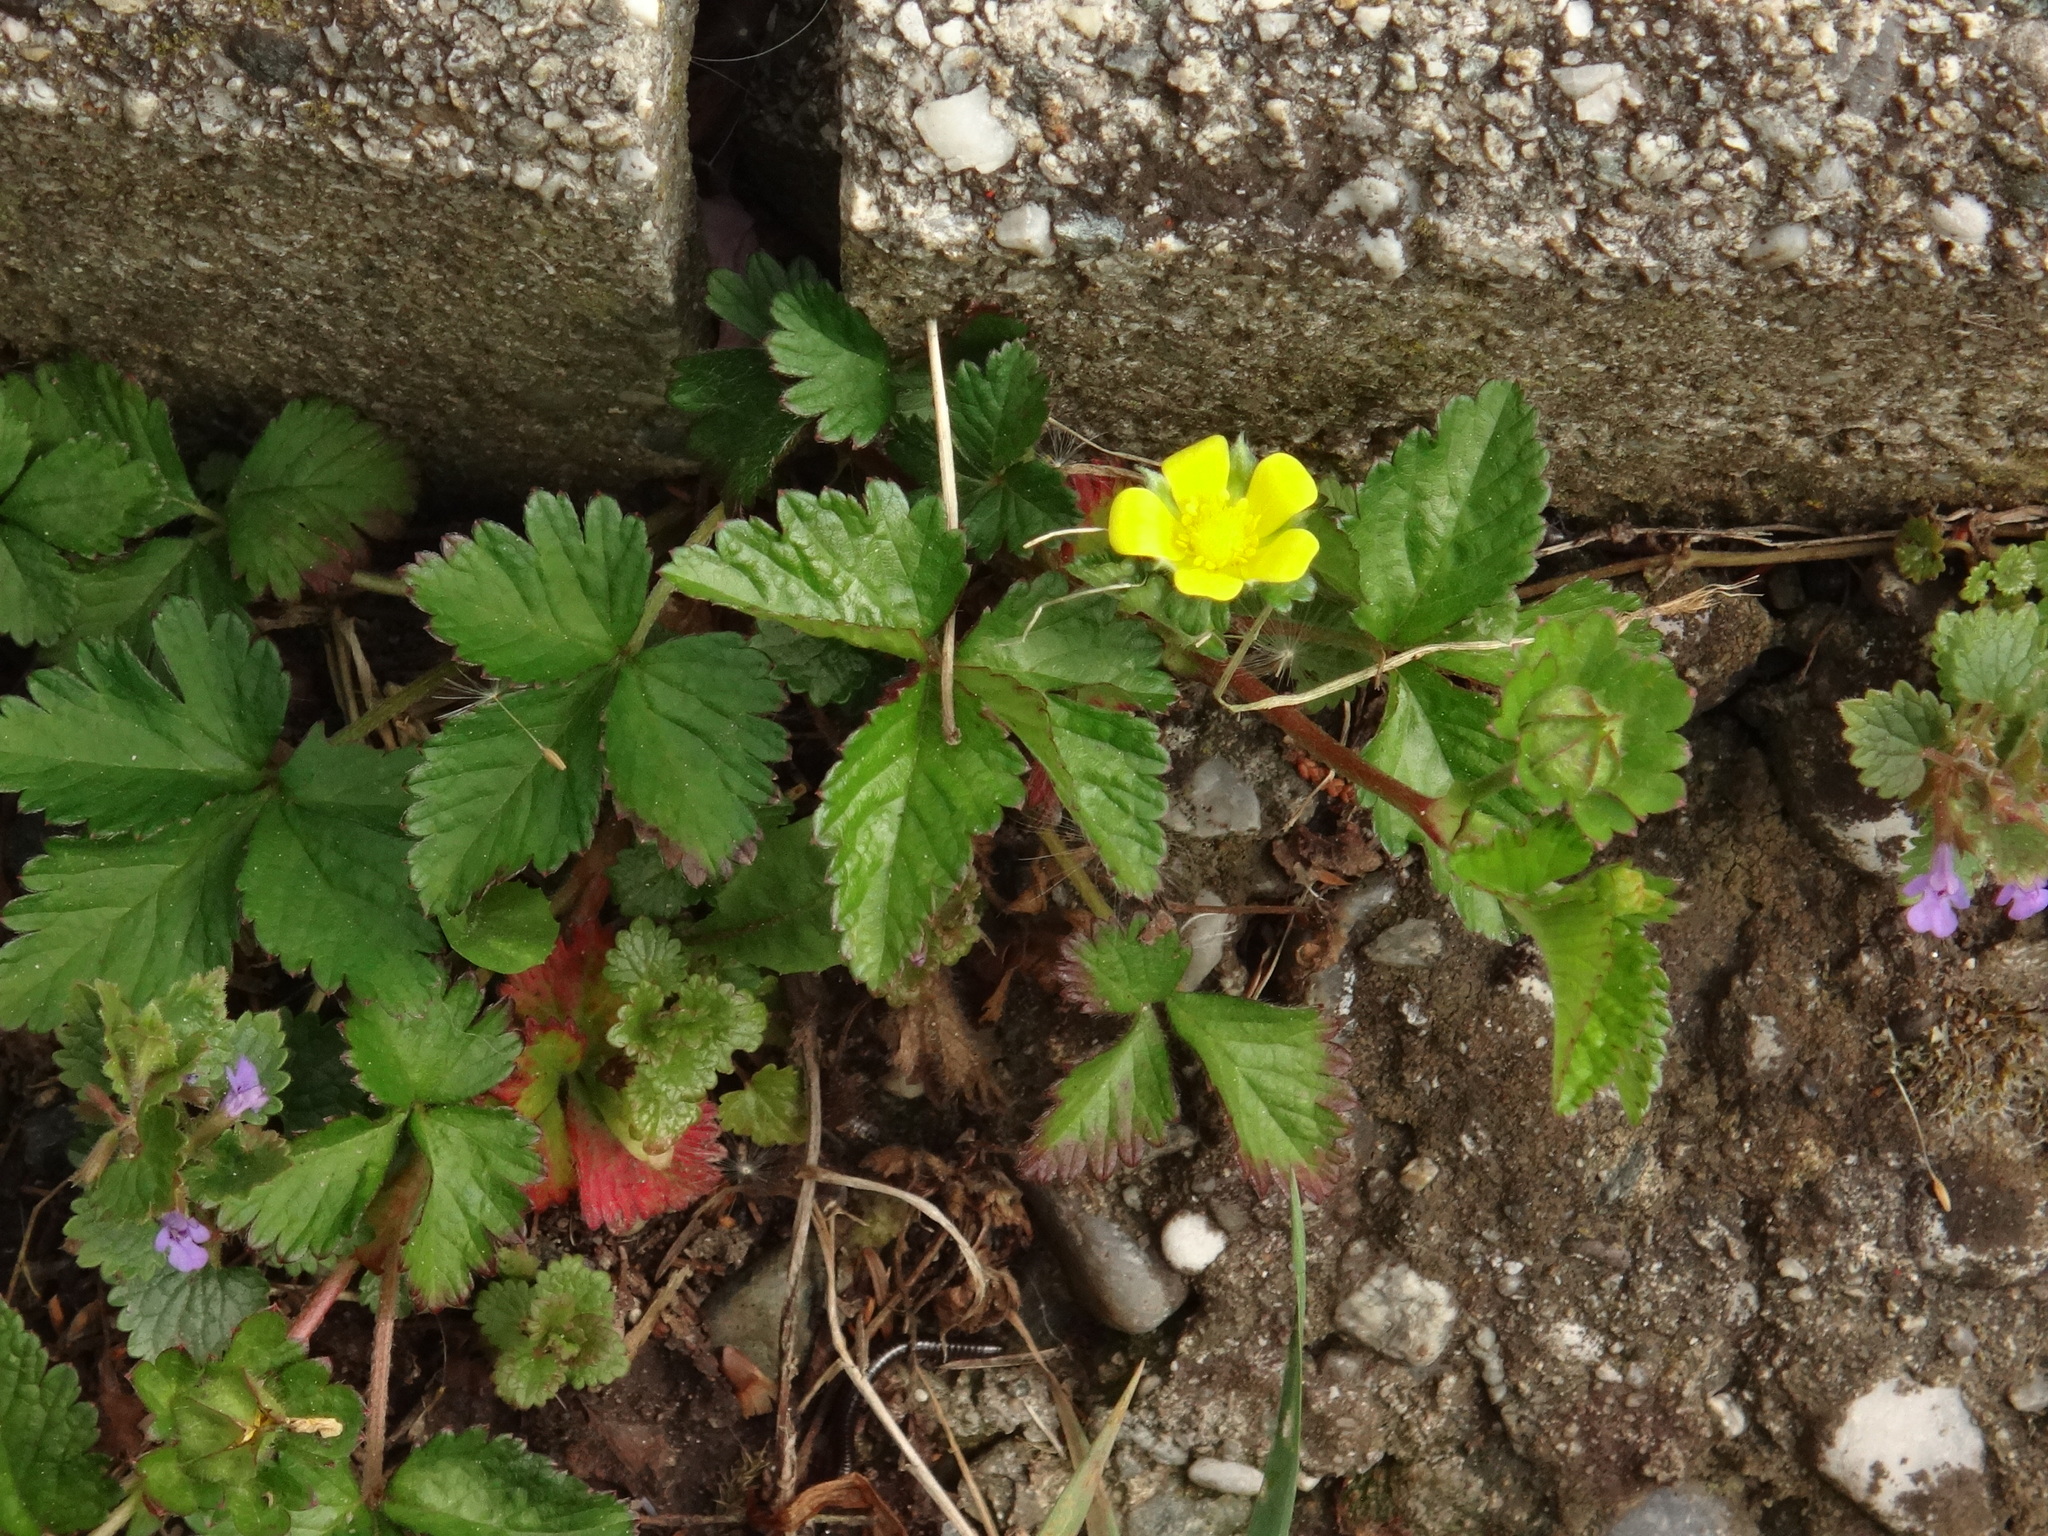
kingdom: Plantae
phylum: Tracheophyta
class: Magnoliopsida
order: Rosales
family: Rosaceae
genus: Potentilla
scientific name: Potentilla indica
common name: Yellow-flowered strawberry
